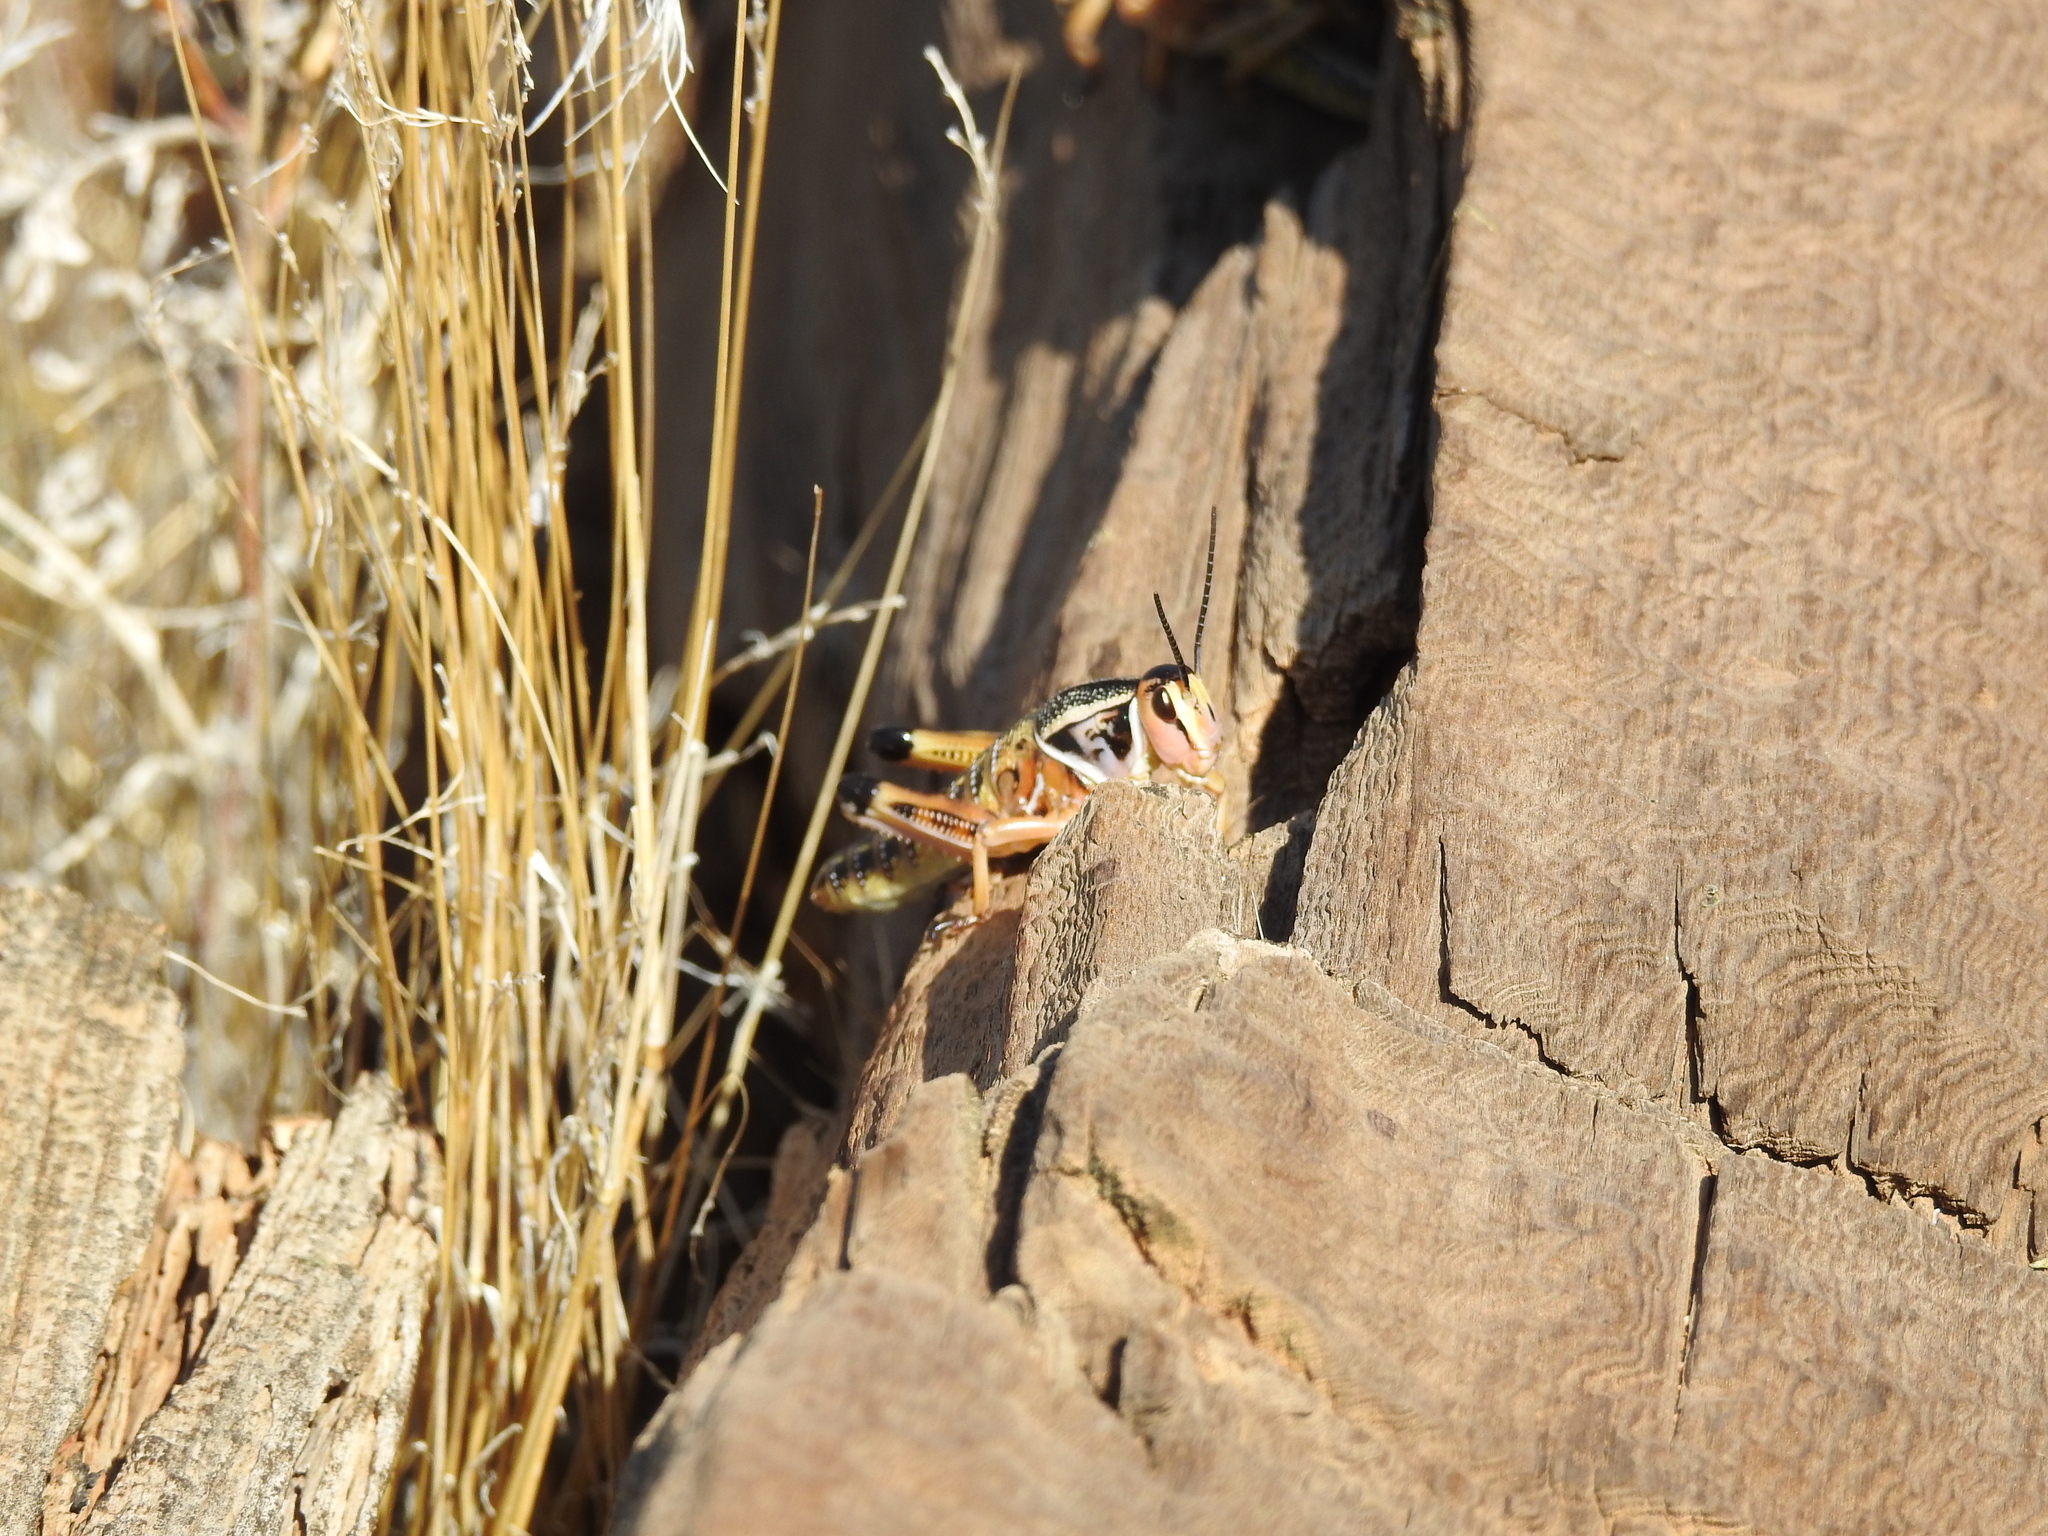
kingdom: Animalia
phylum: Arthropoda
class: Insecta
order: Orthoptera
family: Romaleidae
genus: Brachystola
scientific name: Brachystola magna
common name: Plains lubber grasshopper
